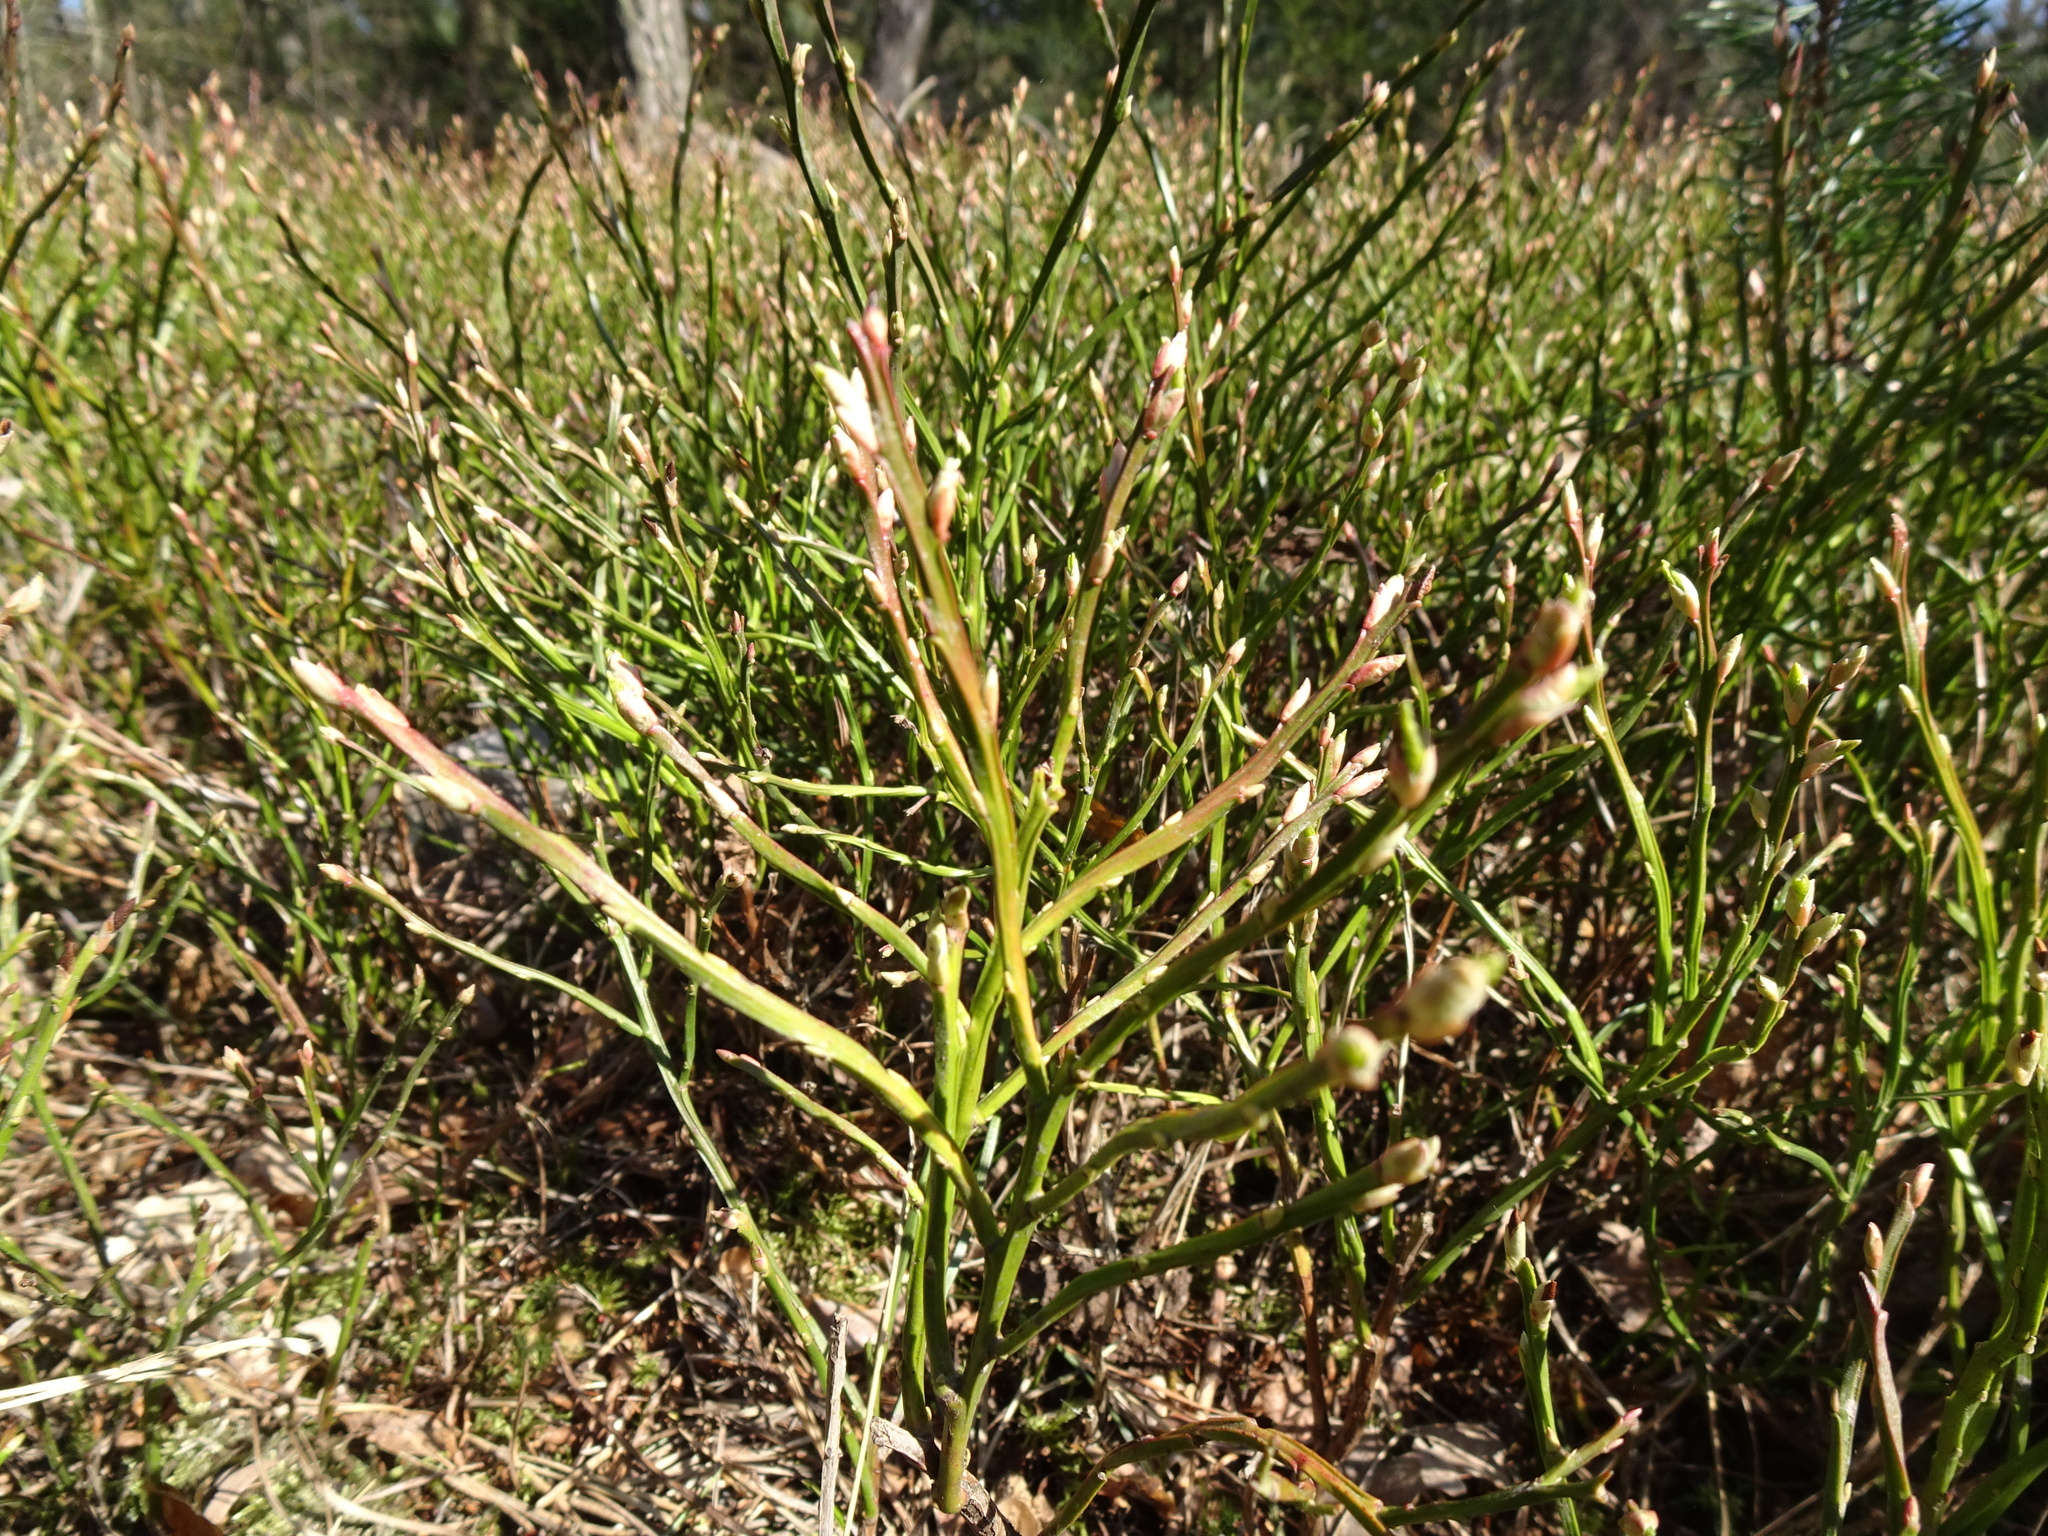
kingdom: Plantae
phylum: Tracheophyta
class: Magnoliopsida
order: Ericales
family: Ericaceae
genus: Vaccinium
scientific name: Vaccinium myrtillus
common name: Bilberry
